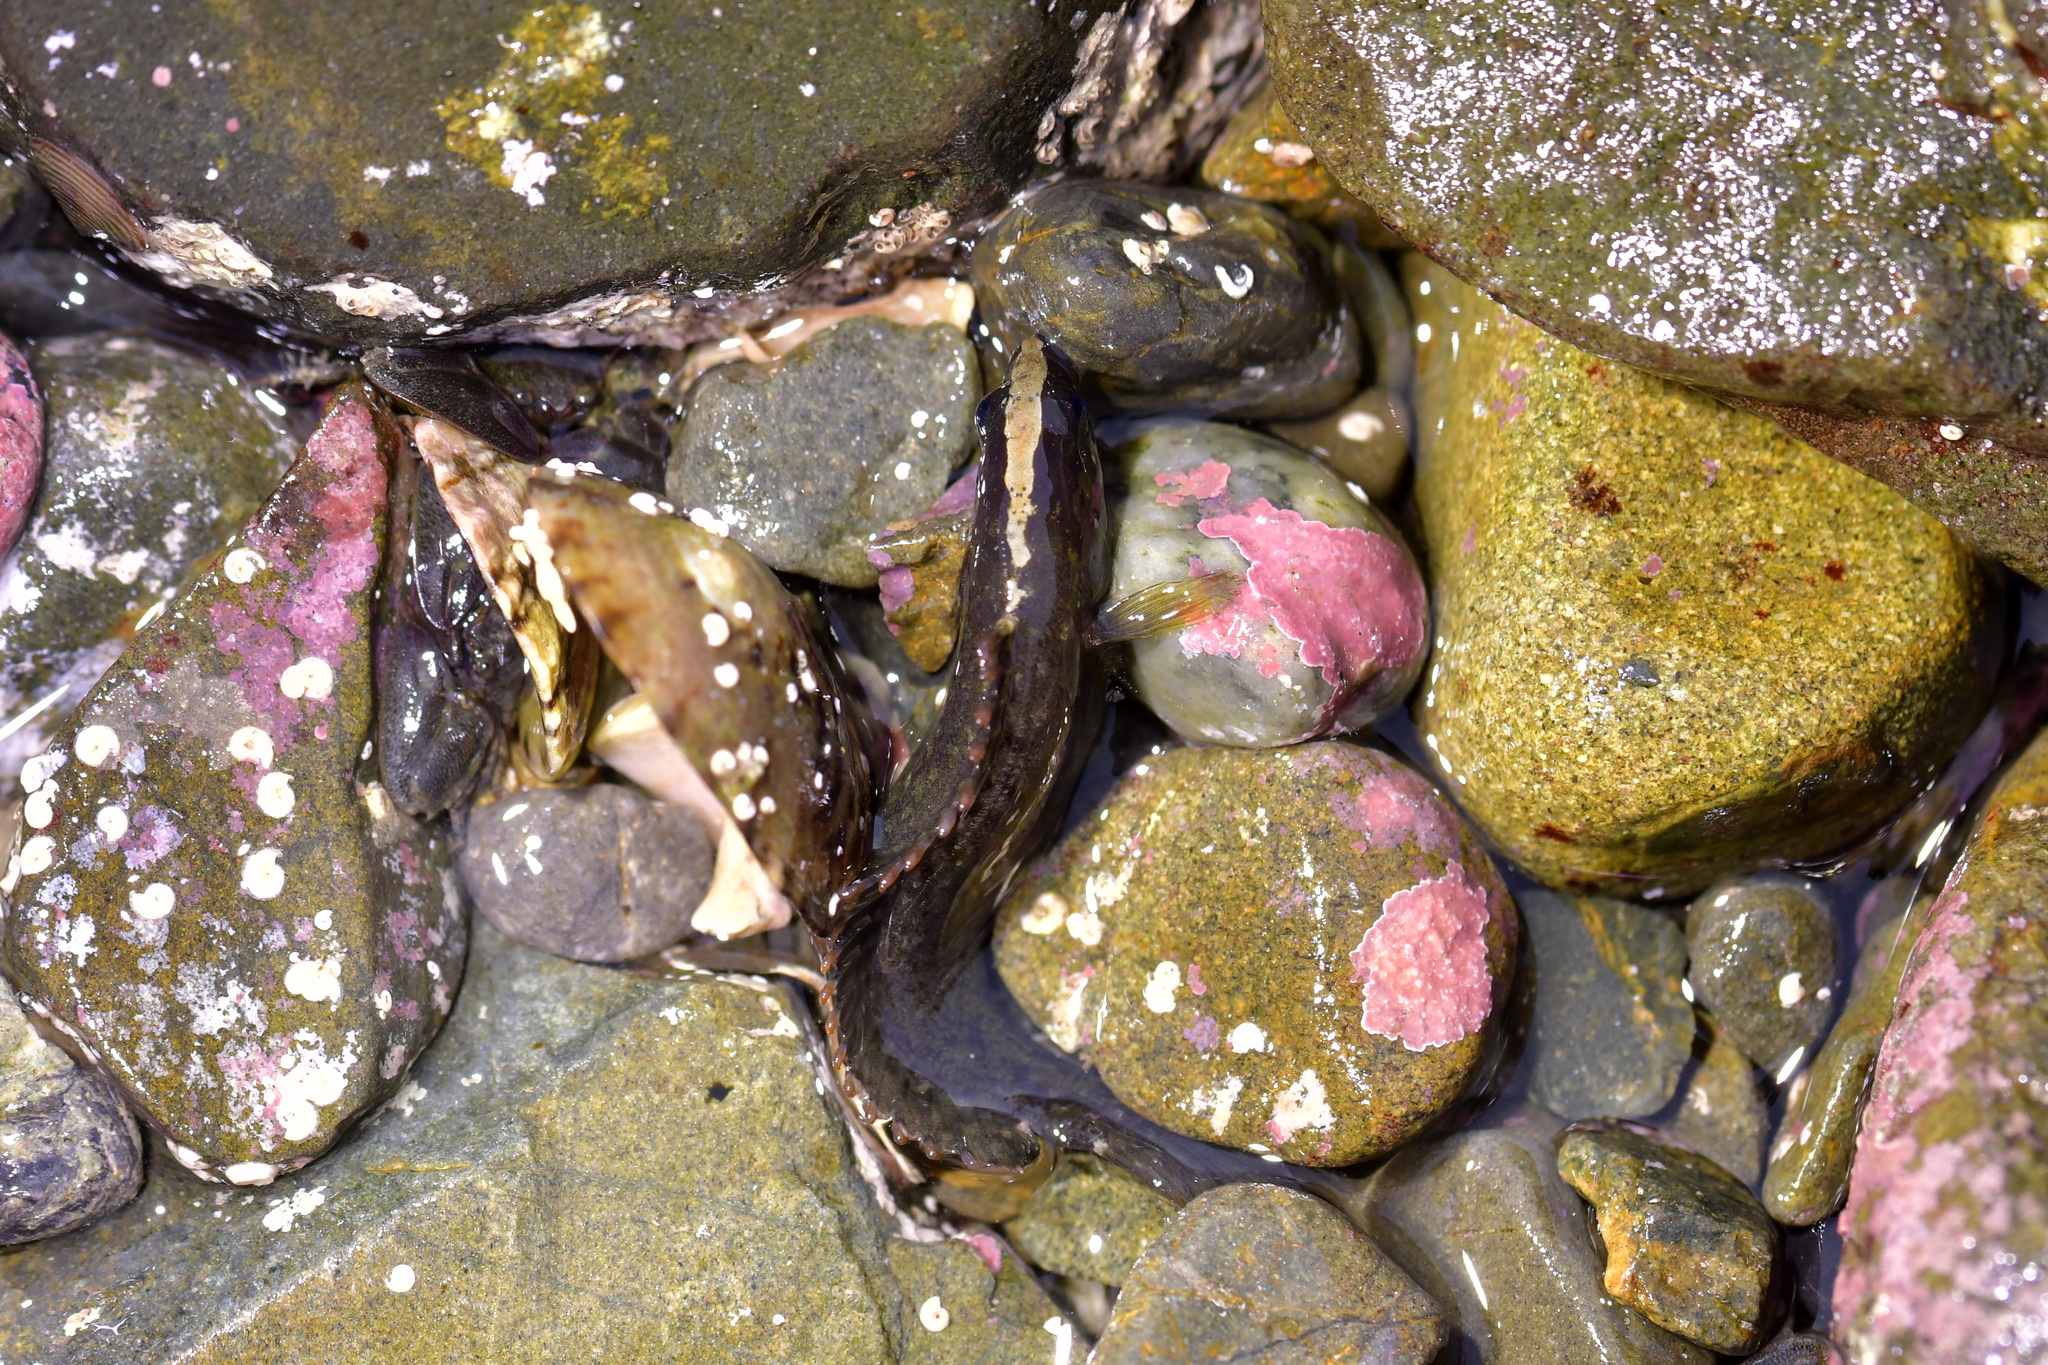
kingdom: Animalia
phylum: Chordata
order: Perciformes
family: Plesiopidae
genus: Acanthoclinus
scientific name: Acanthoclinus fuscus
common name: Olive rockfish
